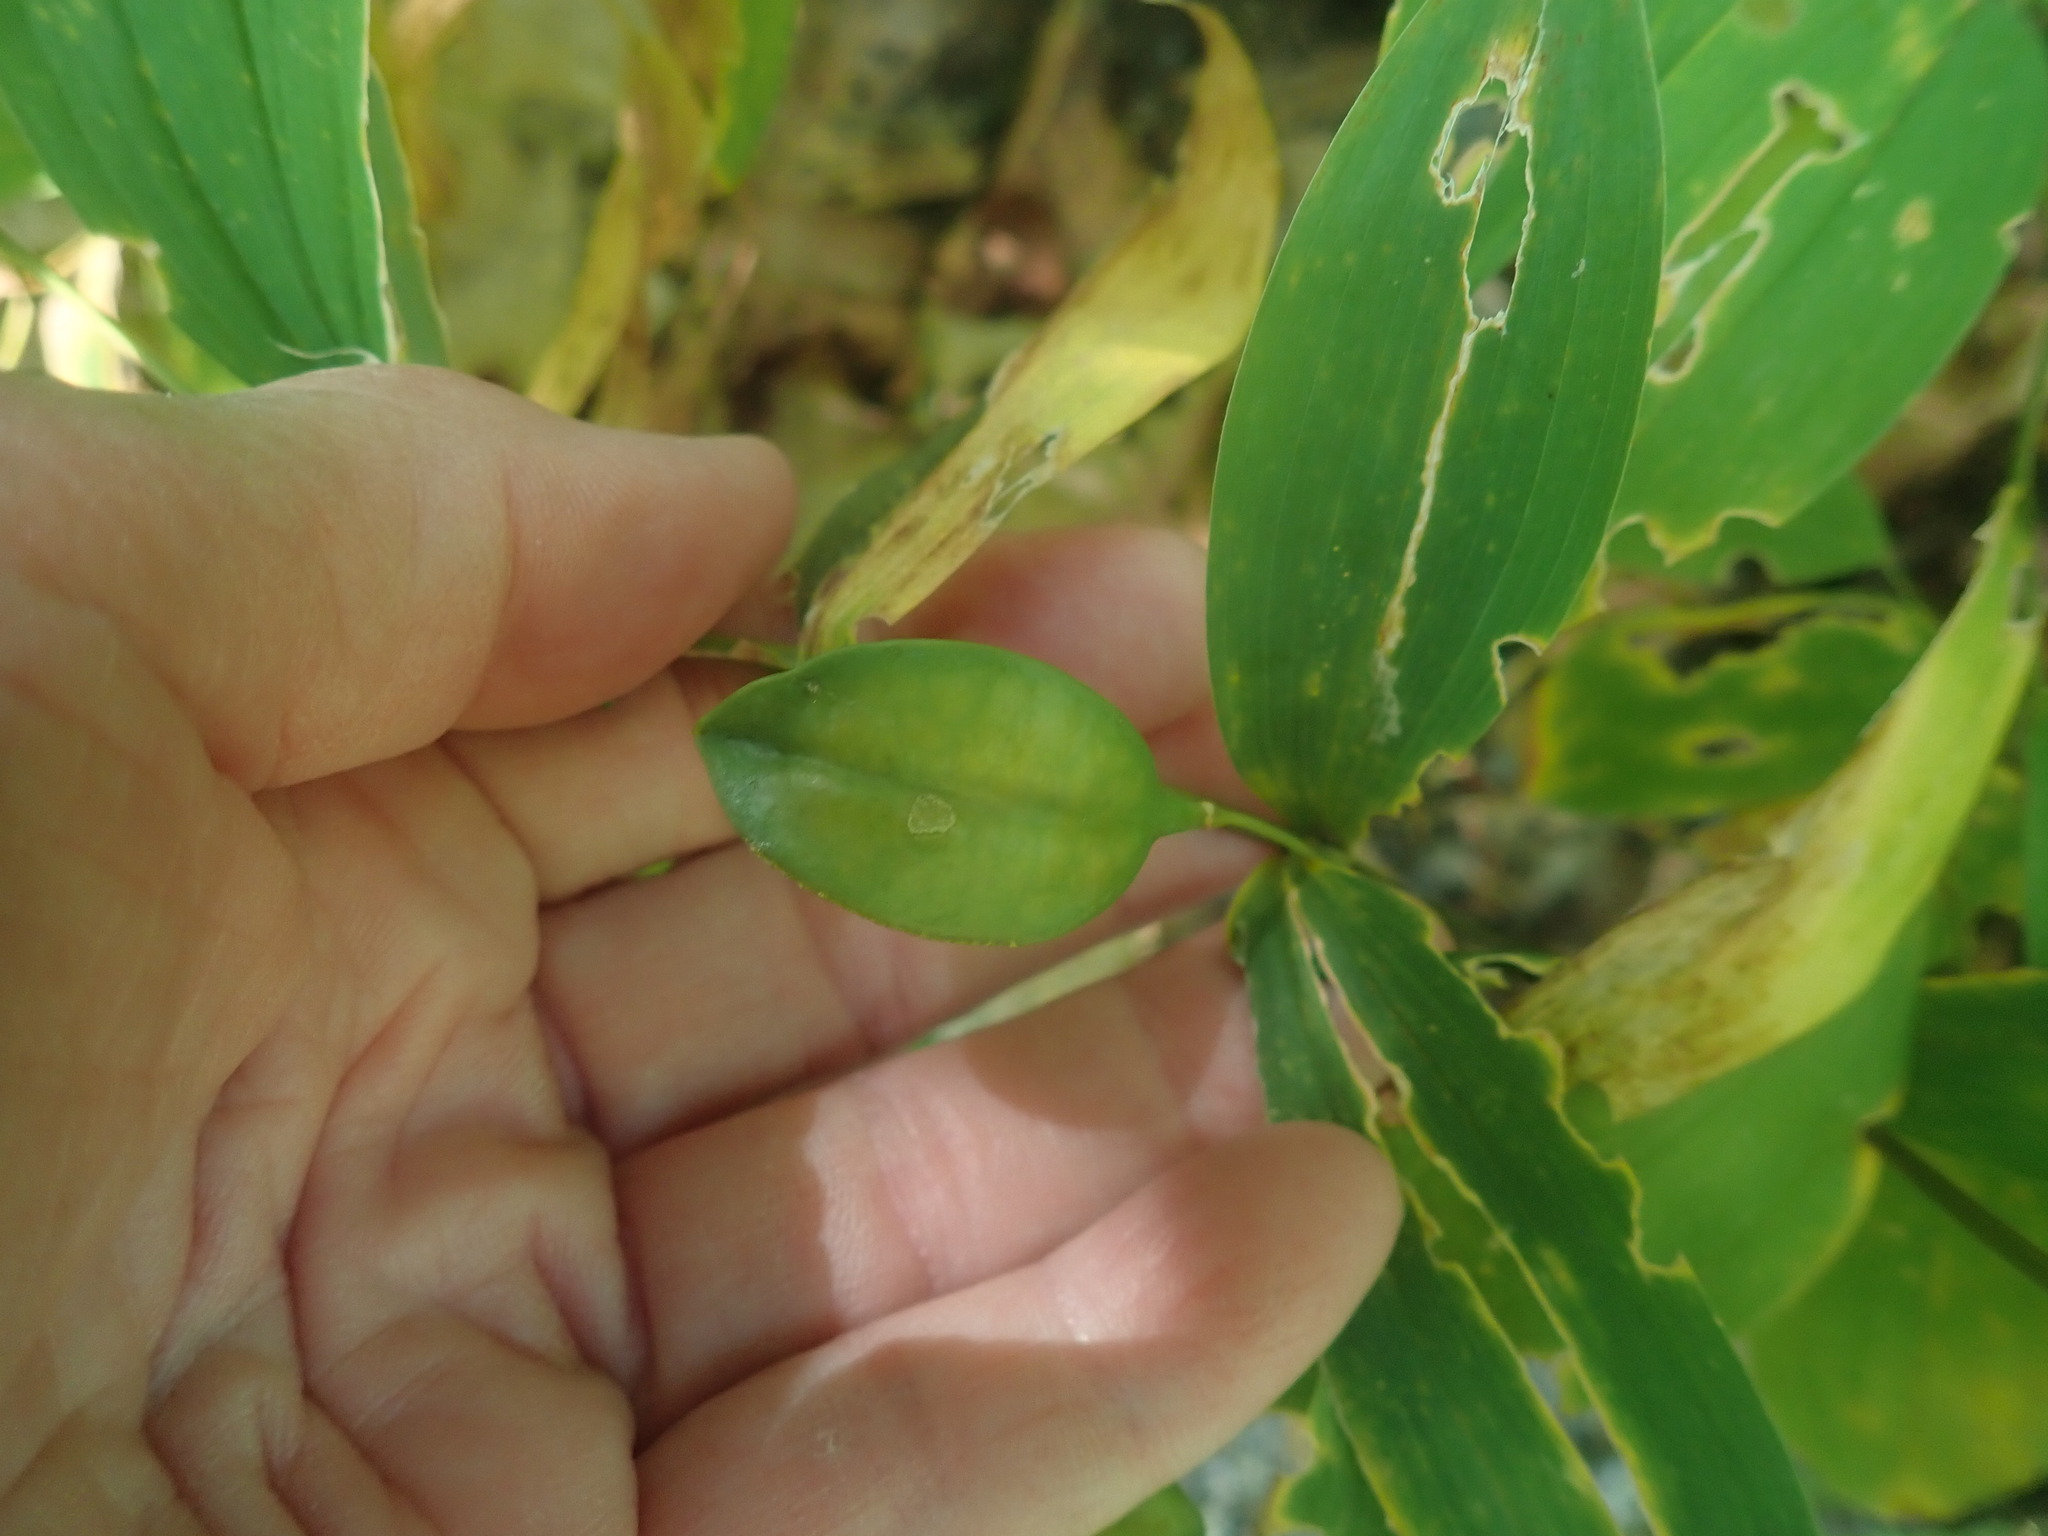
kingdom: Plantae
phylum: Tracheophyta
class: Liliopsida
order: Liliales
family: Colchicaceae
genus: Uvularia
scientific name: Uvularia sessilifolia
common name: Straw-lily
